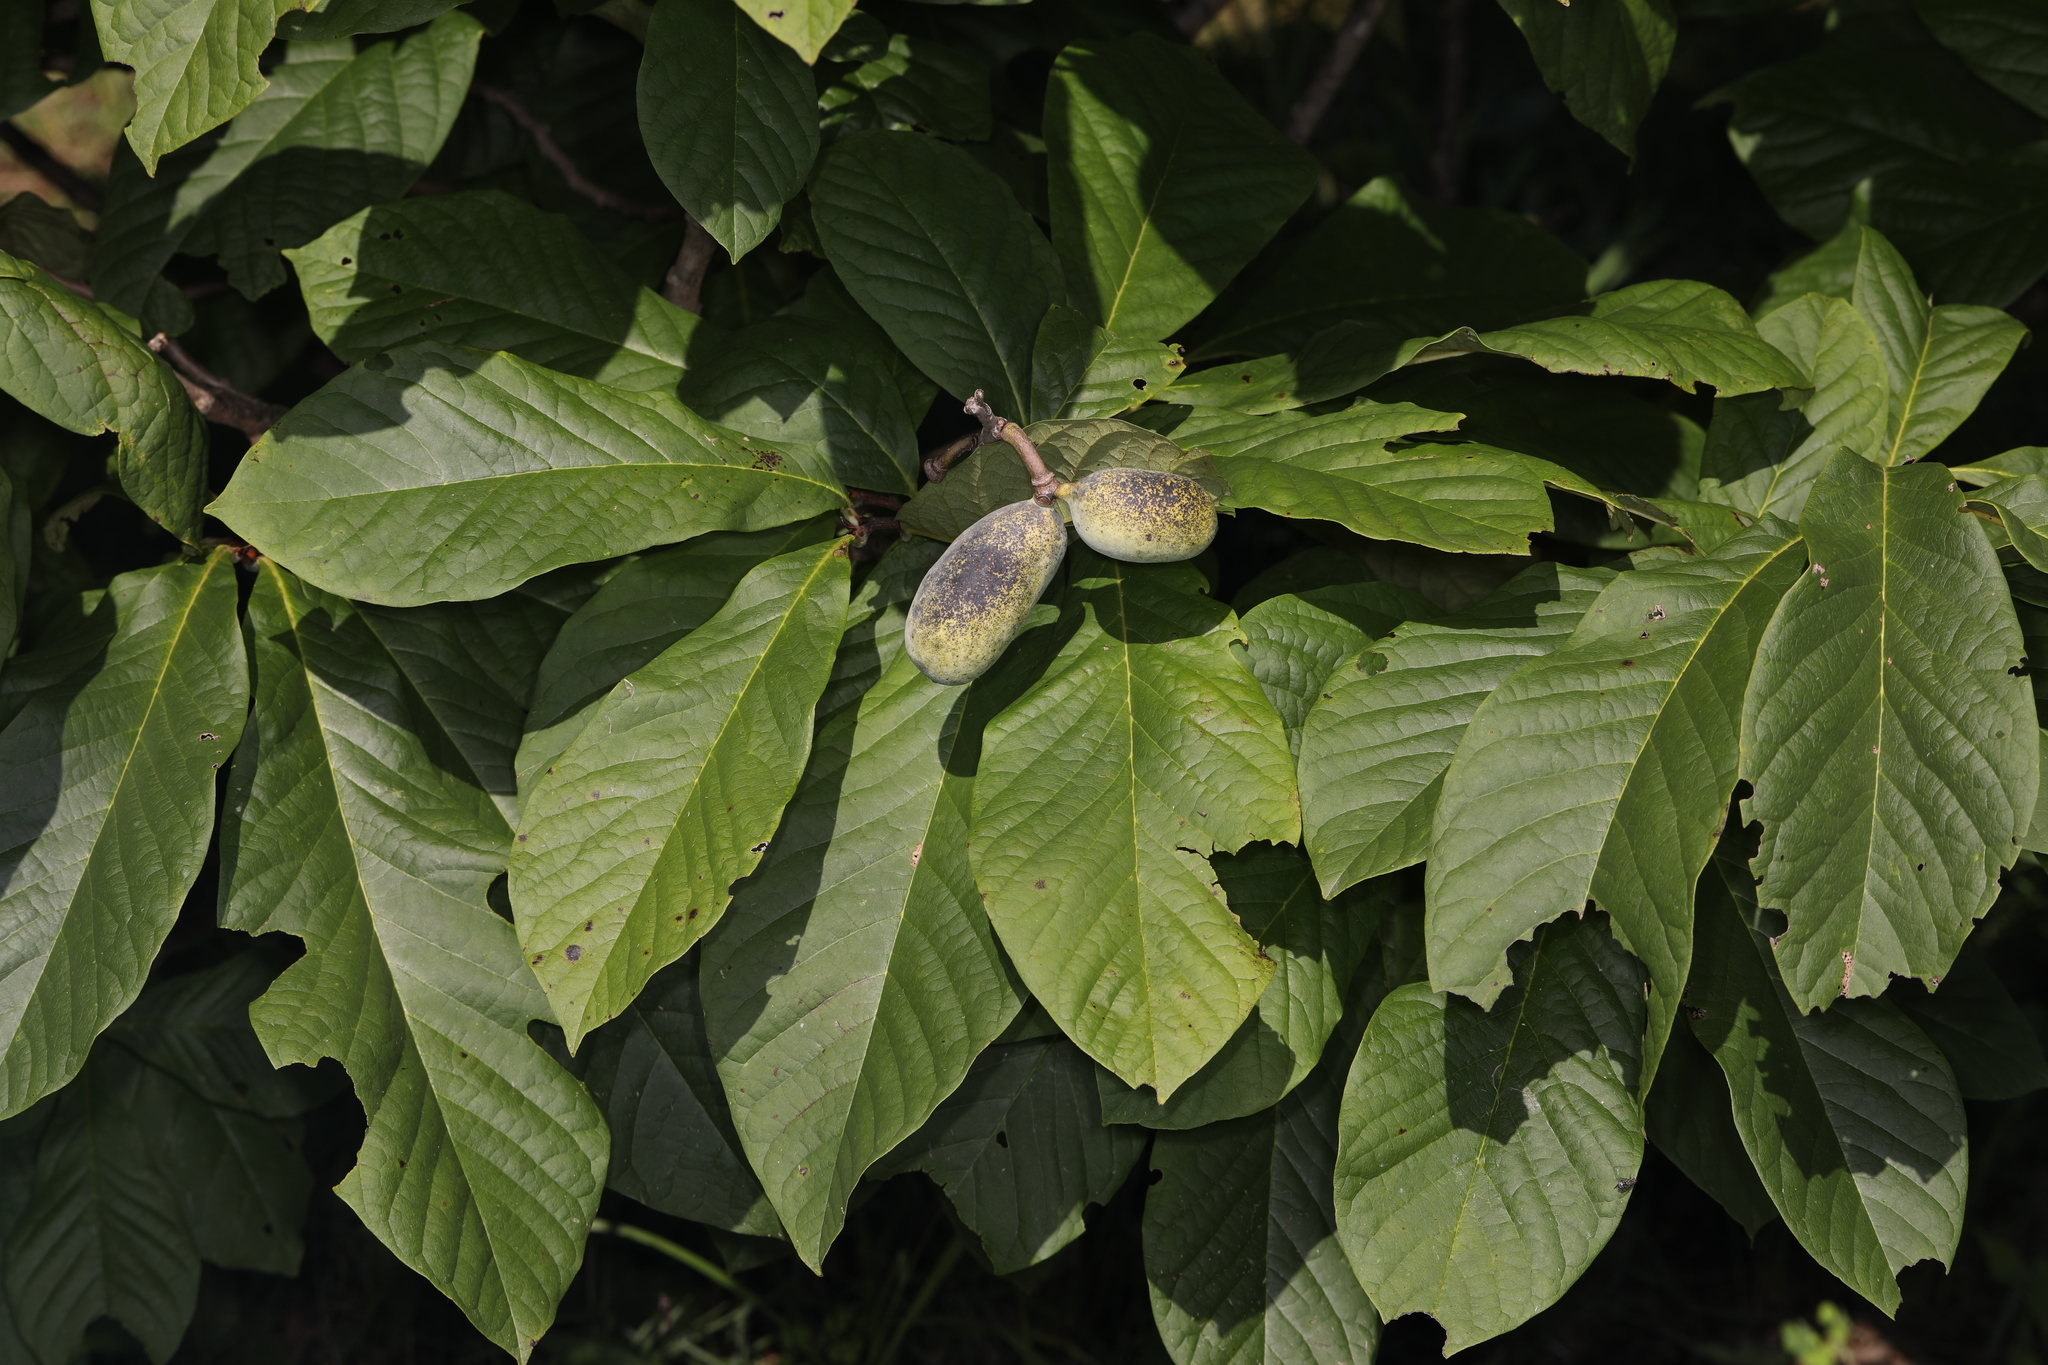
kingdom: Plantae
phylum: Tracheophyta
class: Magnoliopsida
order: Magnoliales
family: Annonaceae
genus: Asimina
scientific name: Asimina triloba
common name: Dog-banana
